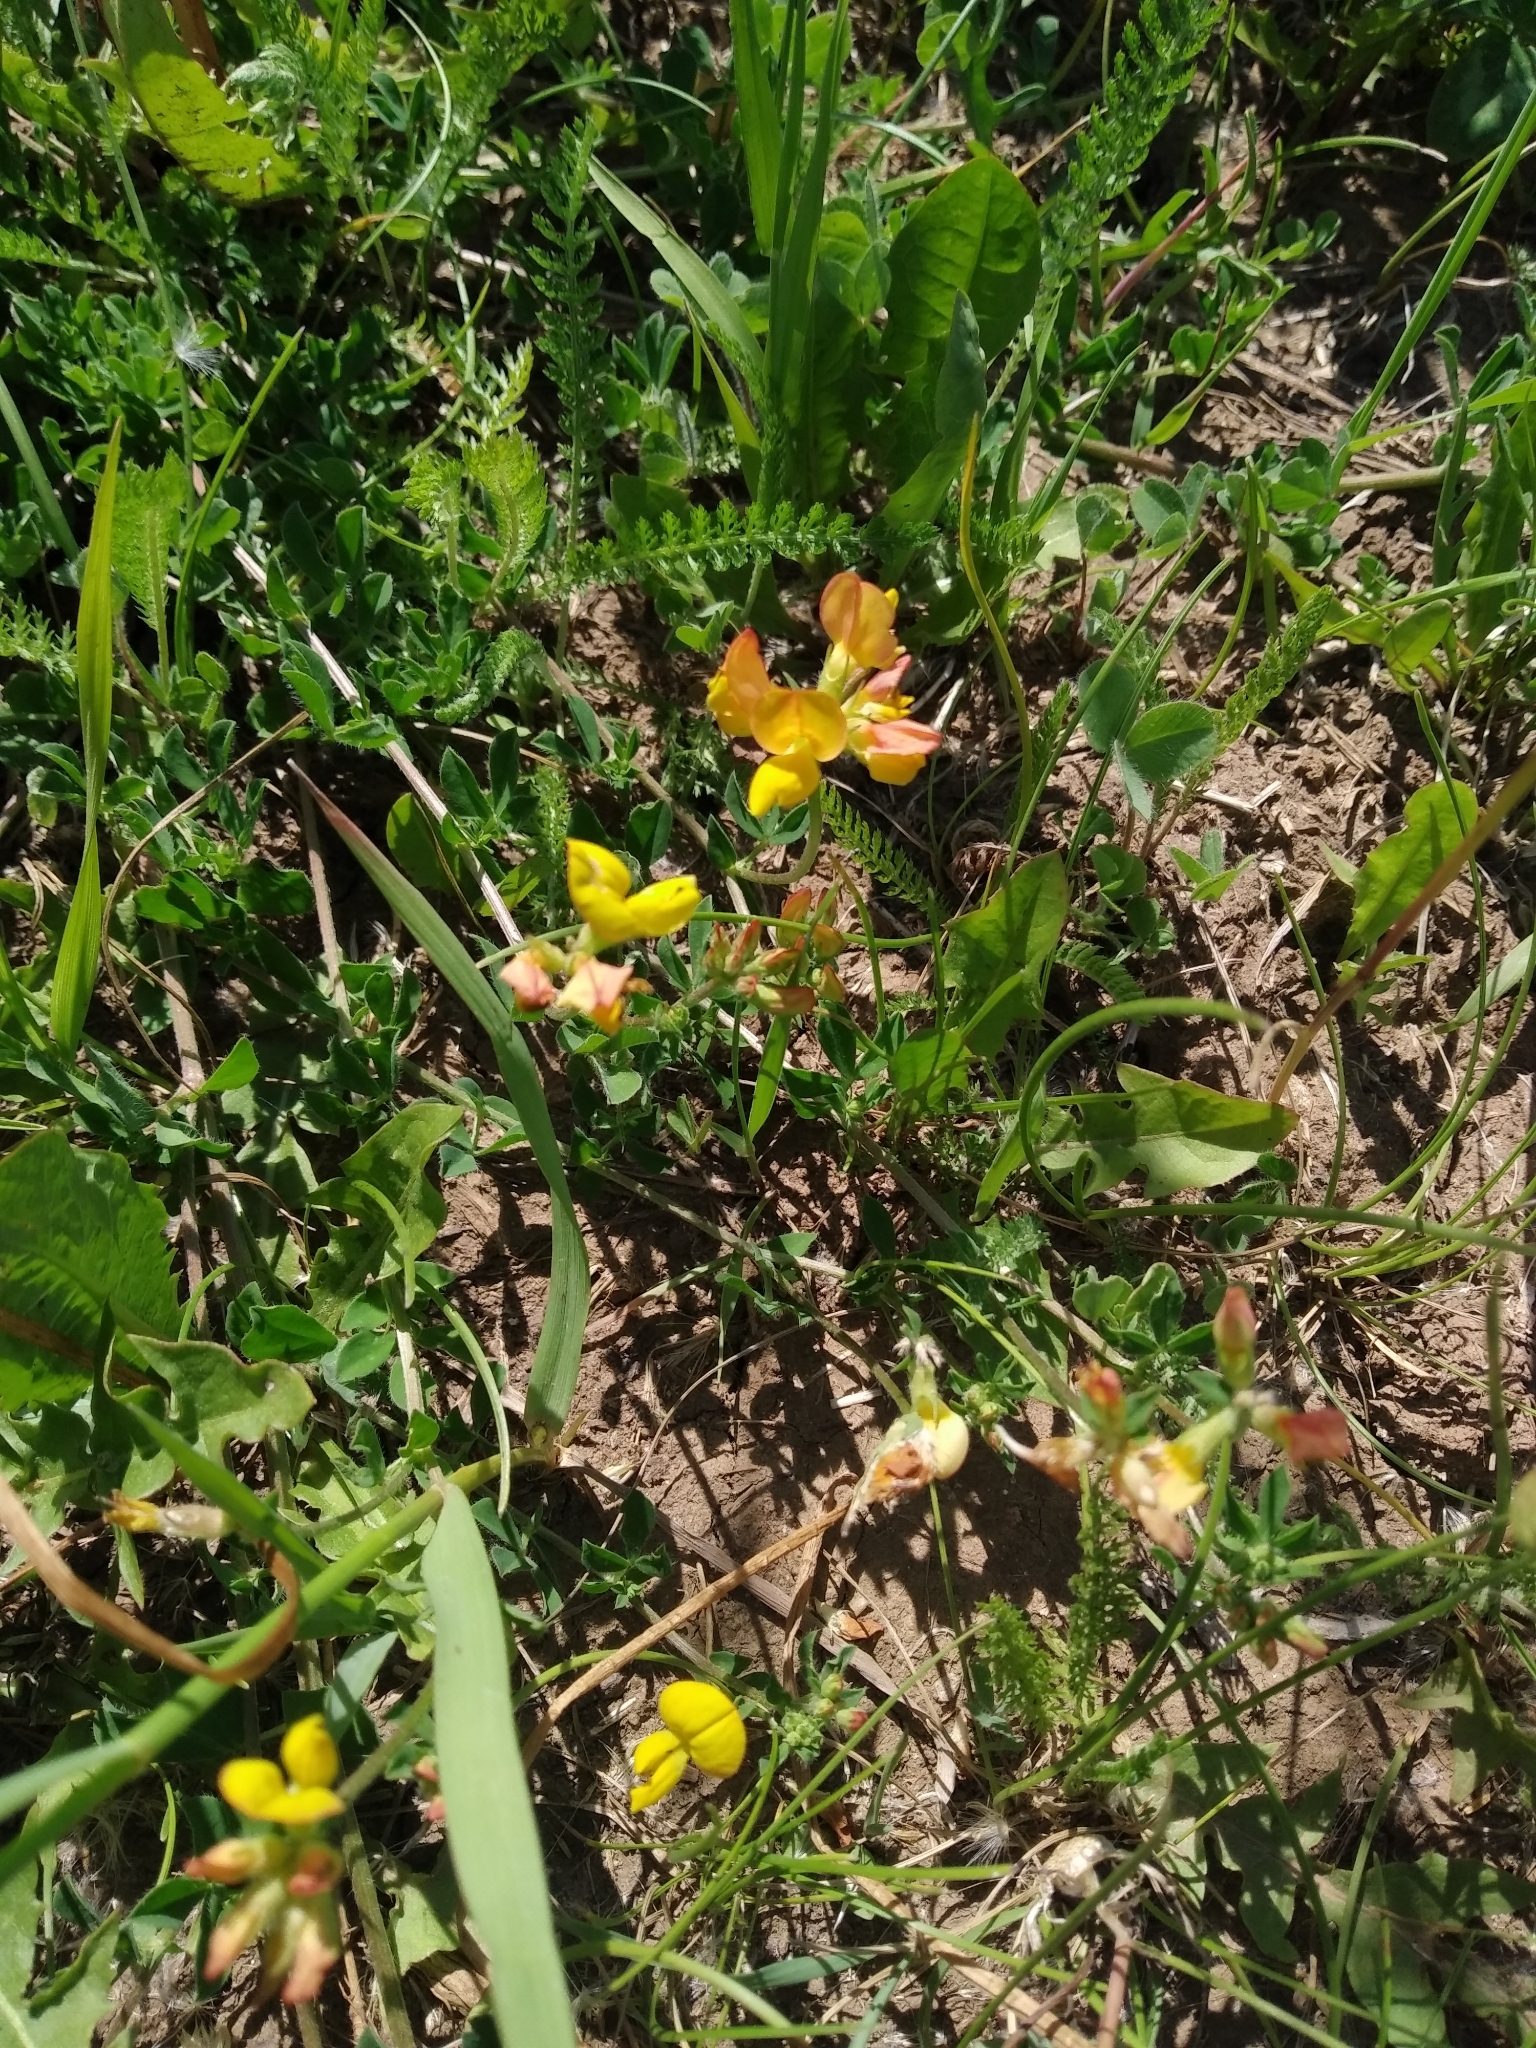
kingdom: Plantae
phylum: Tracheophyta
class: Magnoliopsida
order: Fabales
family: Fabaceae
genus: Lotus
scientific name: Lotus corniculatus
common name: Common bird's-foot-trefoil
